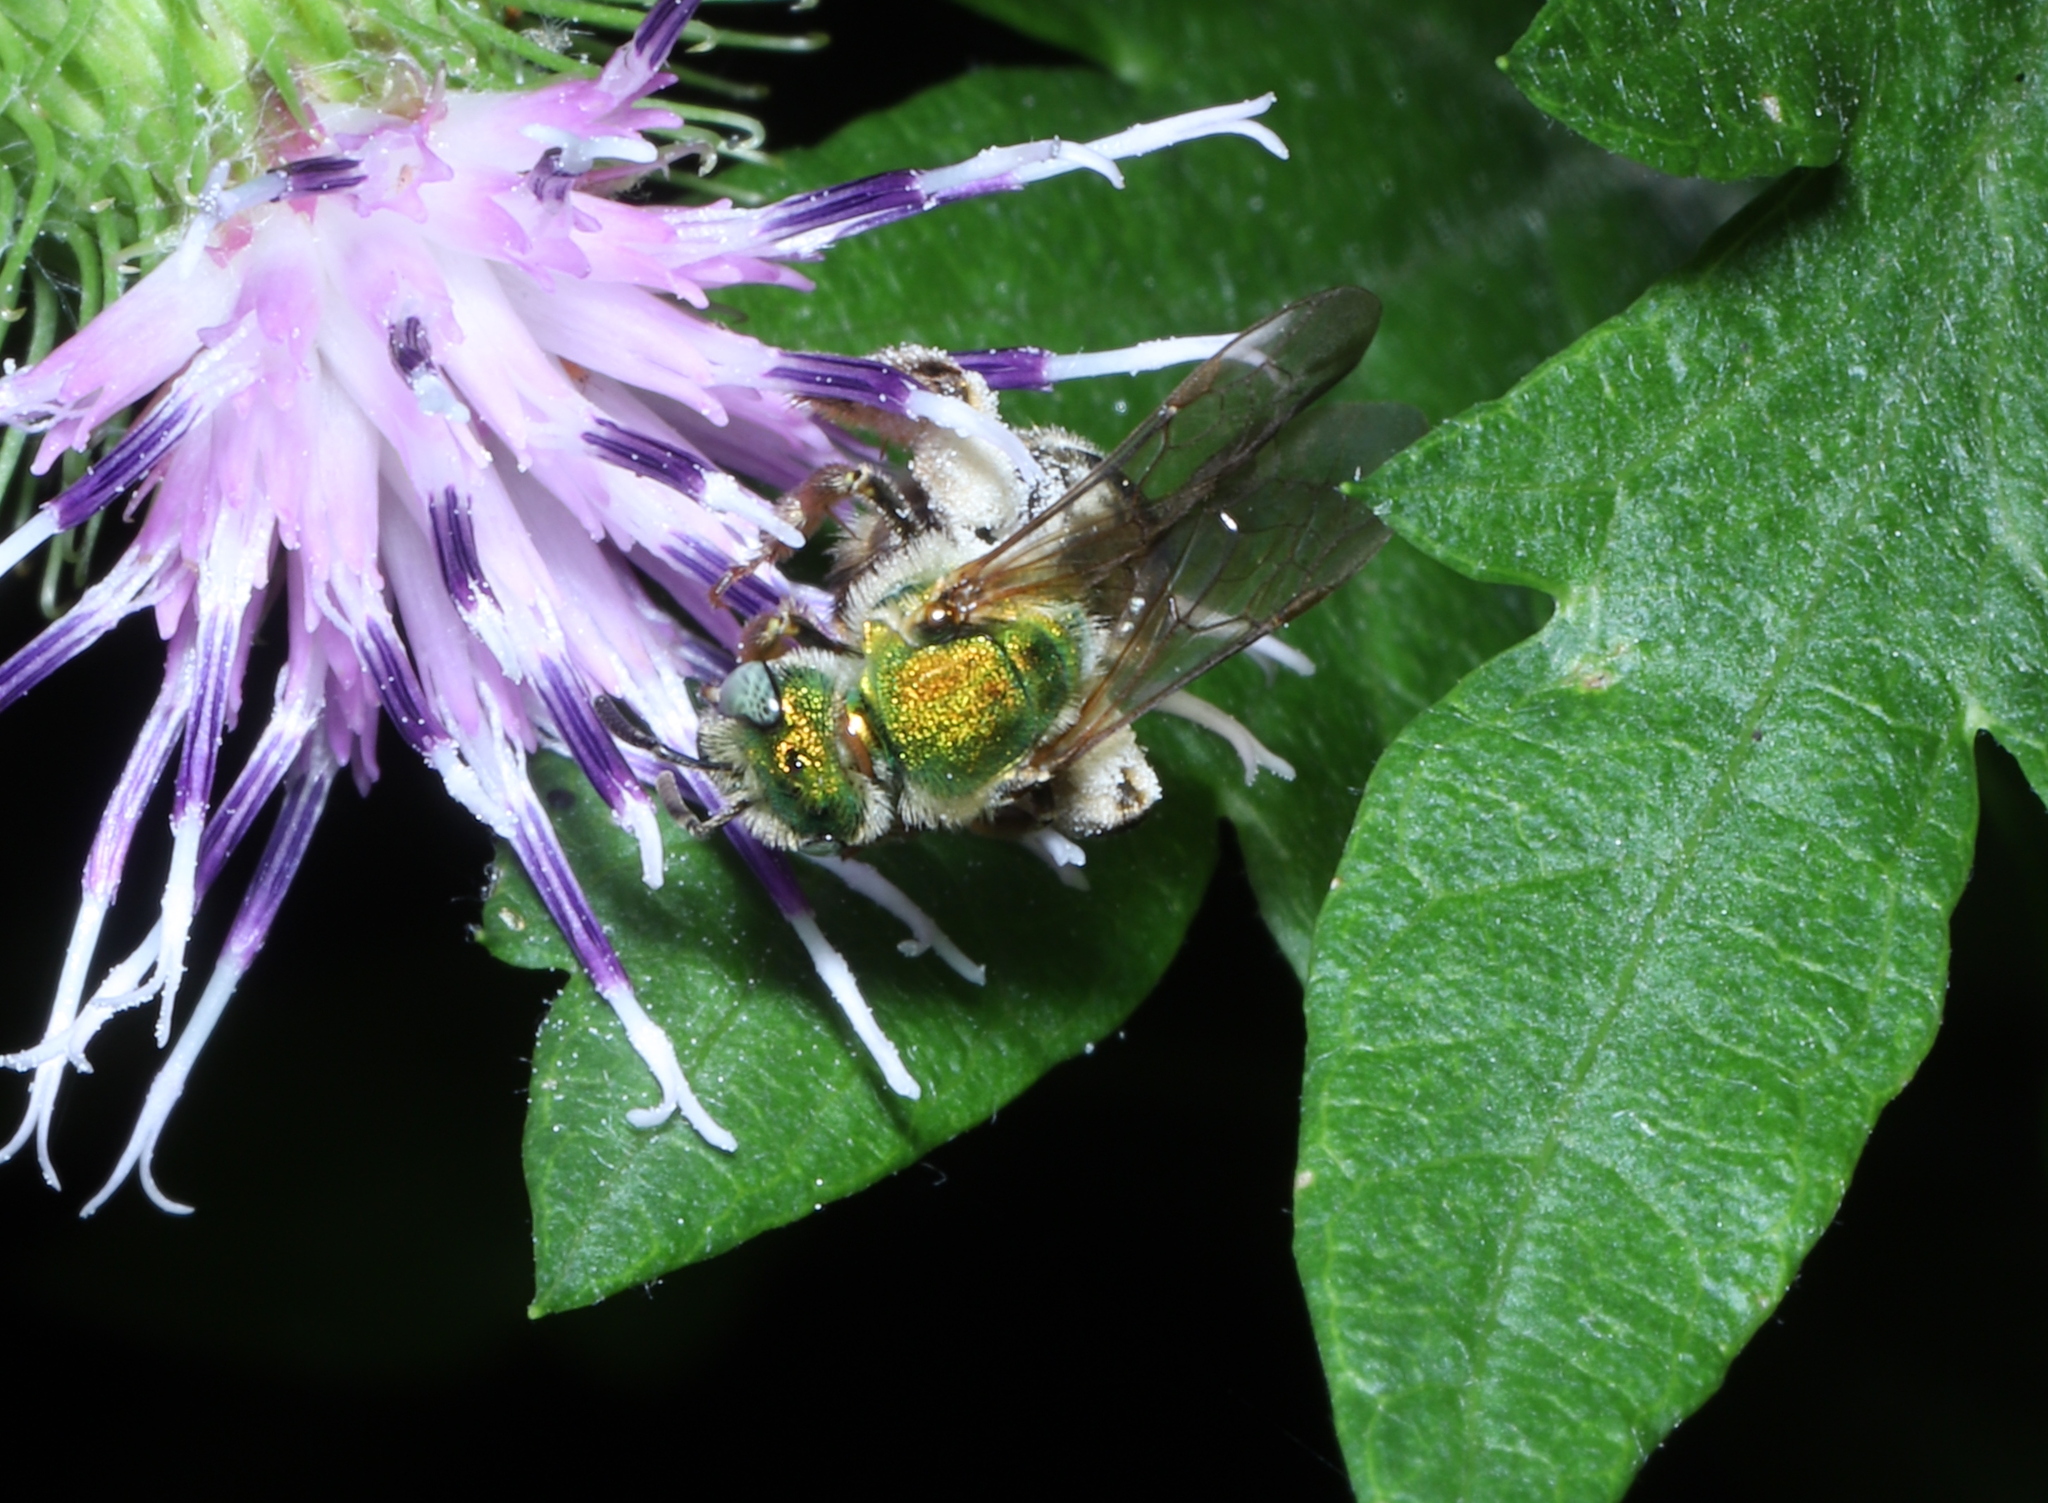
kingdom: Animalia
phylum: Arthropoda
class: Insecta
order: Hymenoptera
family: Halictidae
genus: Agapostemon
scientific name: Agapostemon virescens
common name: Bicolored striped sweat bee
